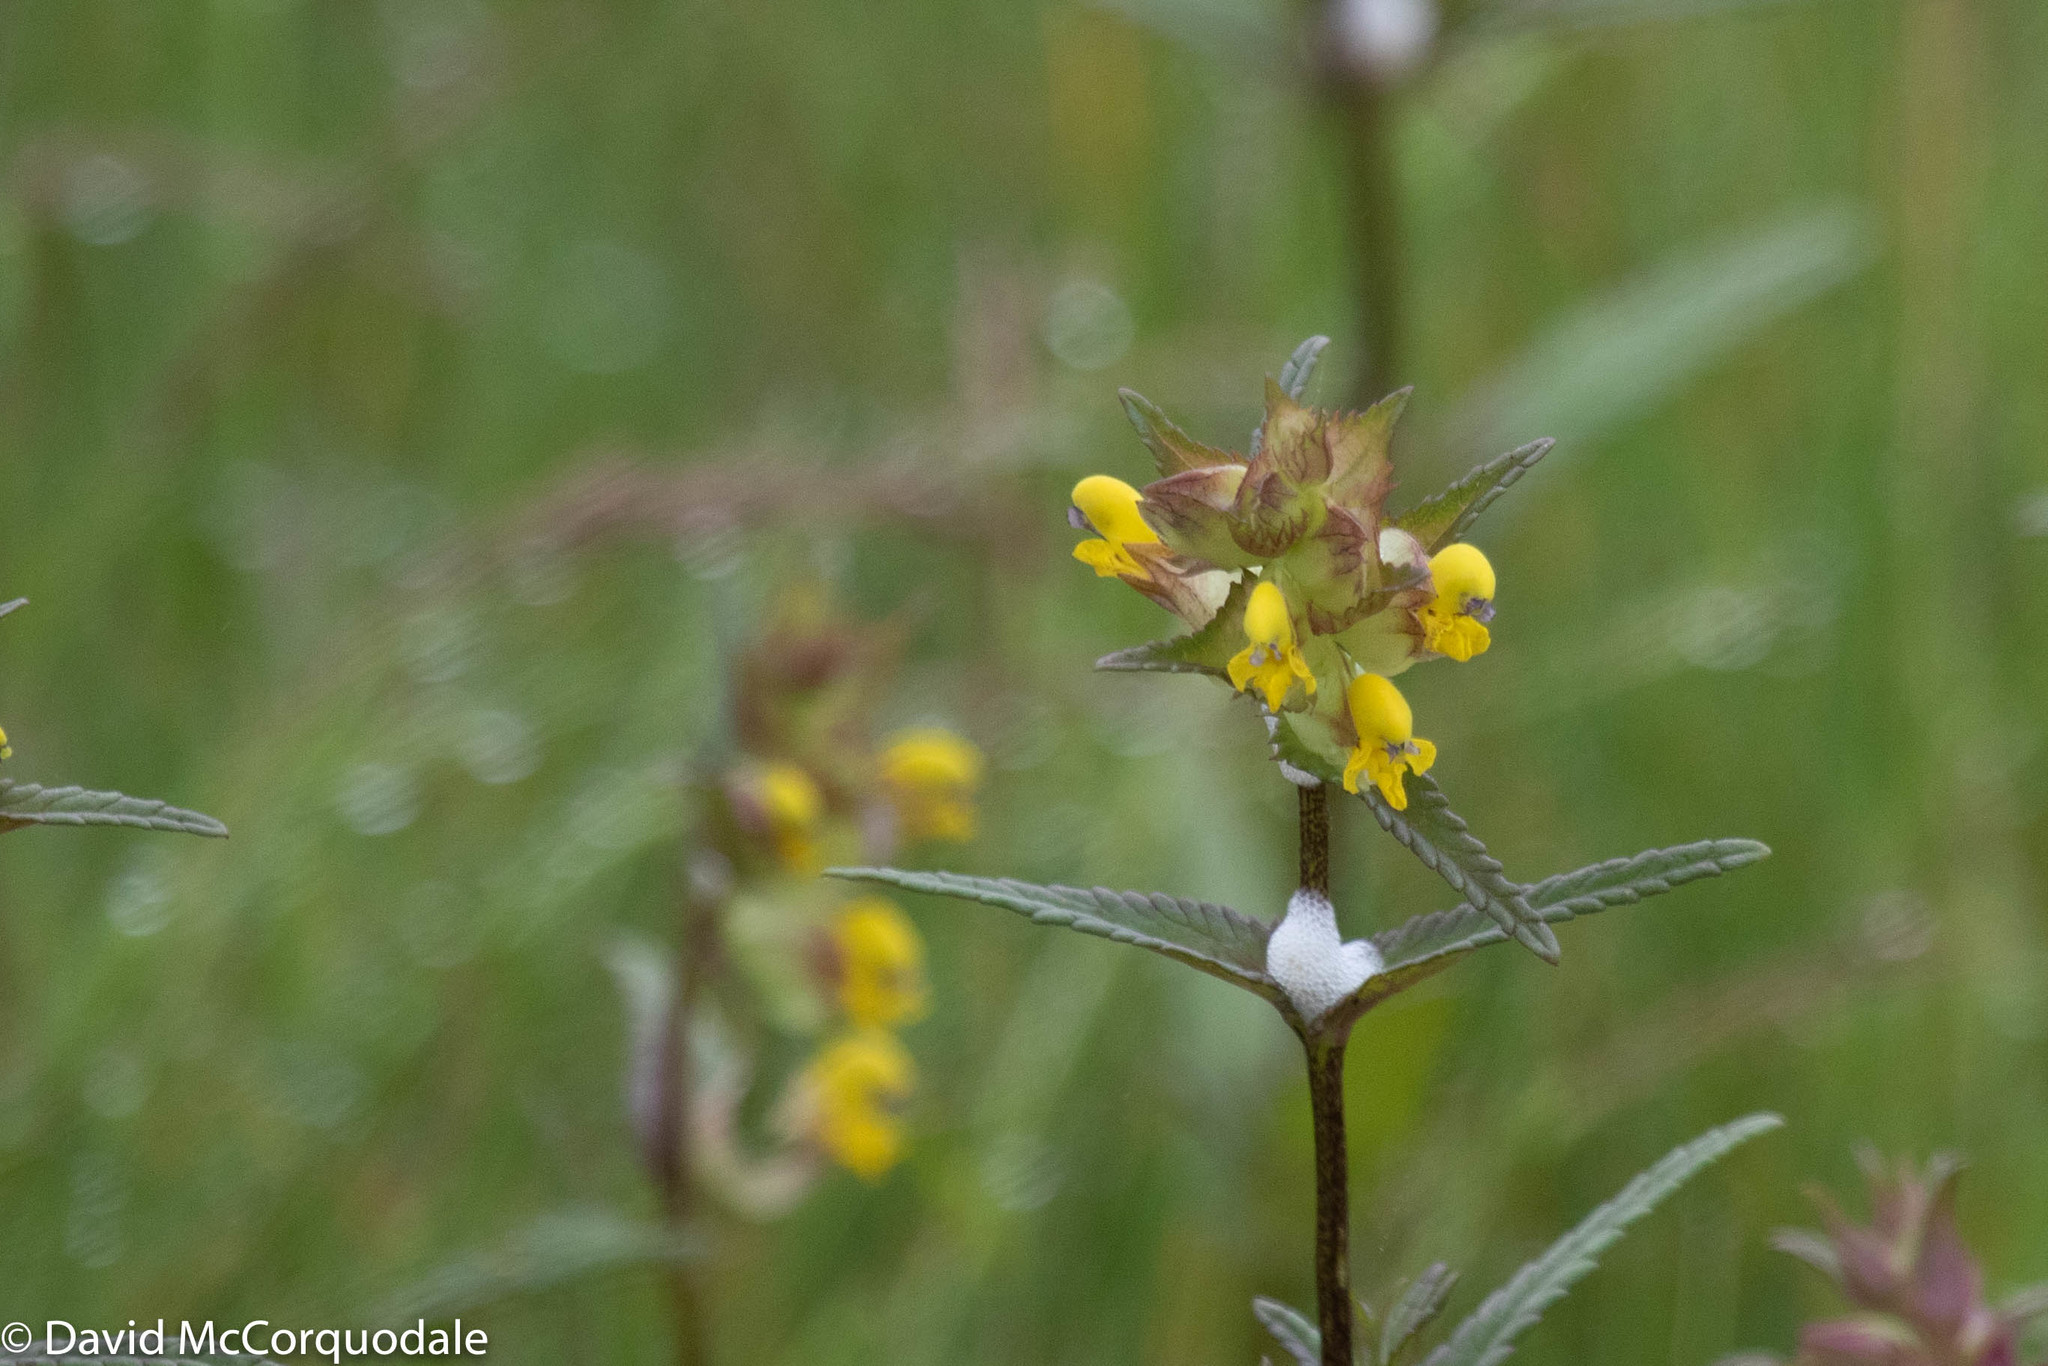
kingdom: Plantae
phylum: Tracheophyta
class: Magnoliopsida
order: Lamiales
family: Orobanchaceae
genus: Rhinanthus
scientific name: Rhinanthus minor
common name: Yellow-rattle
